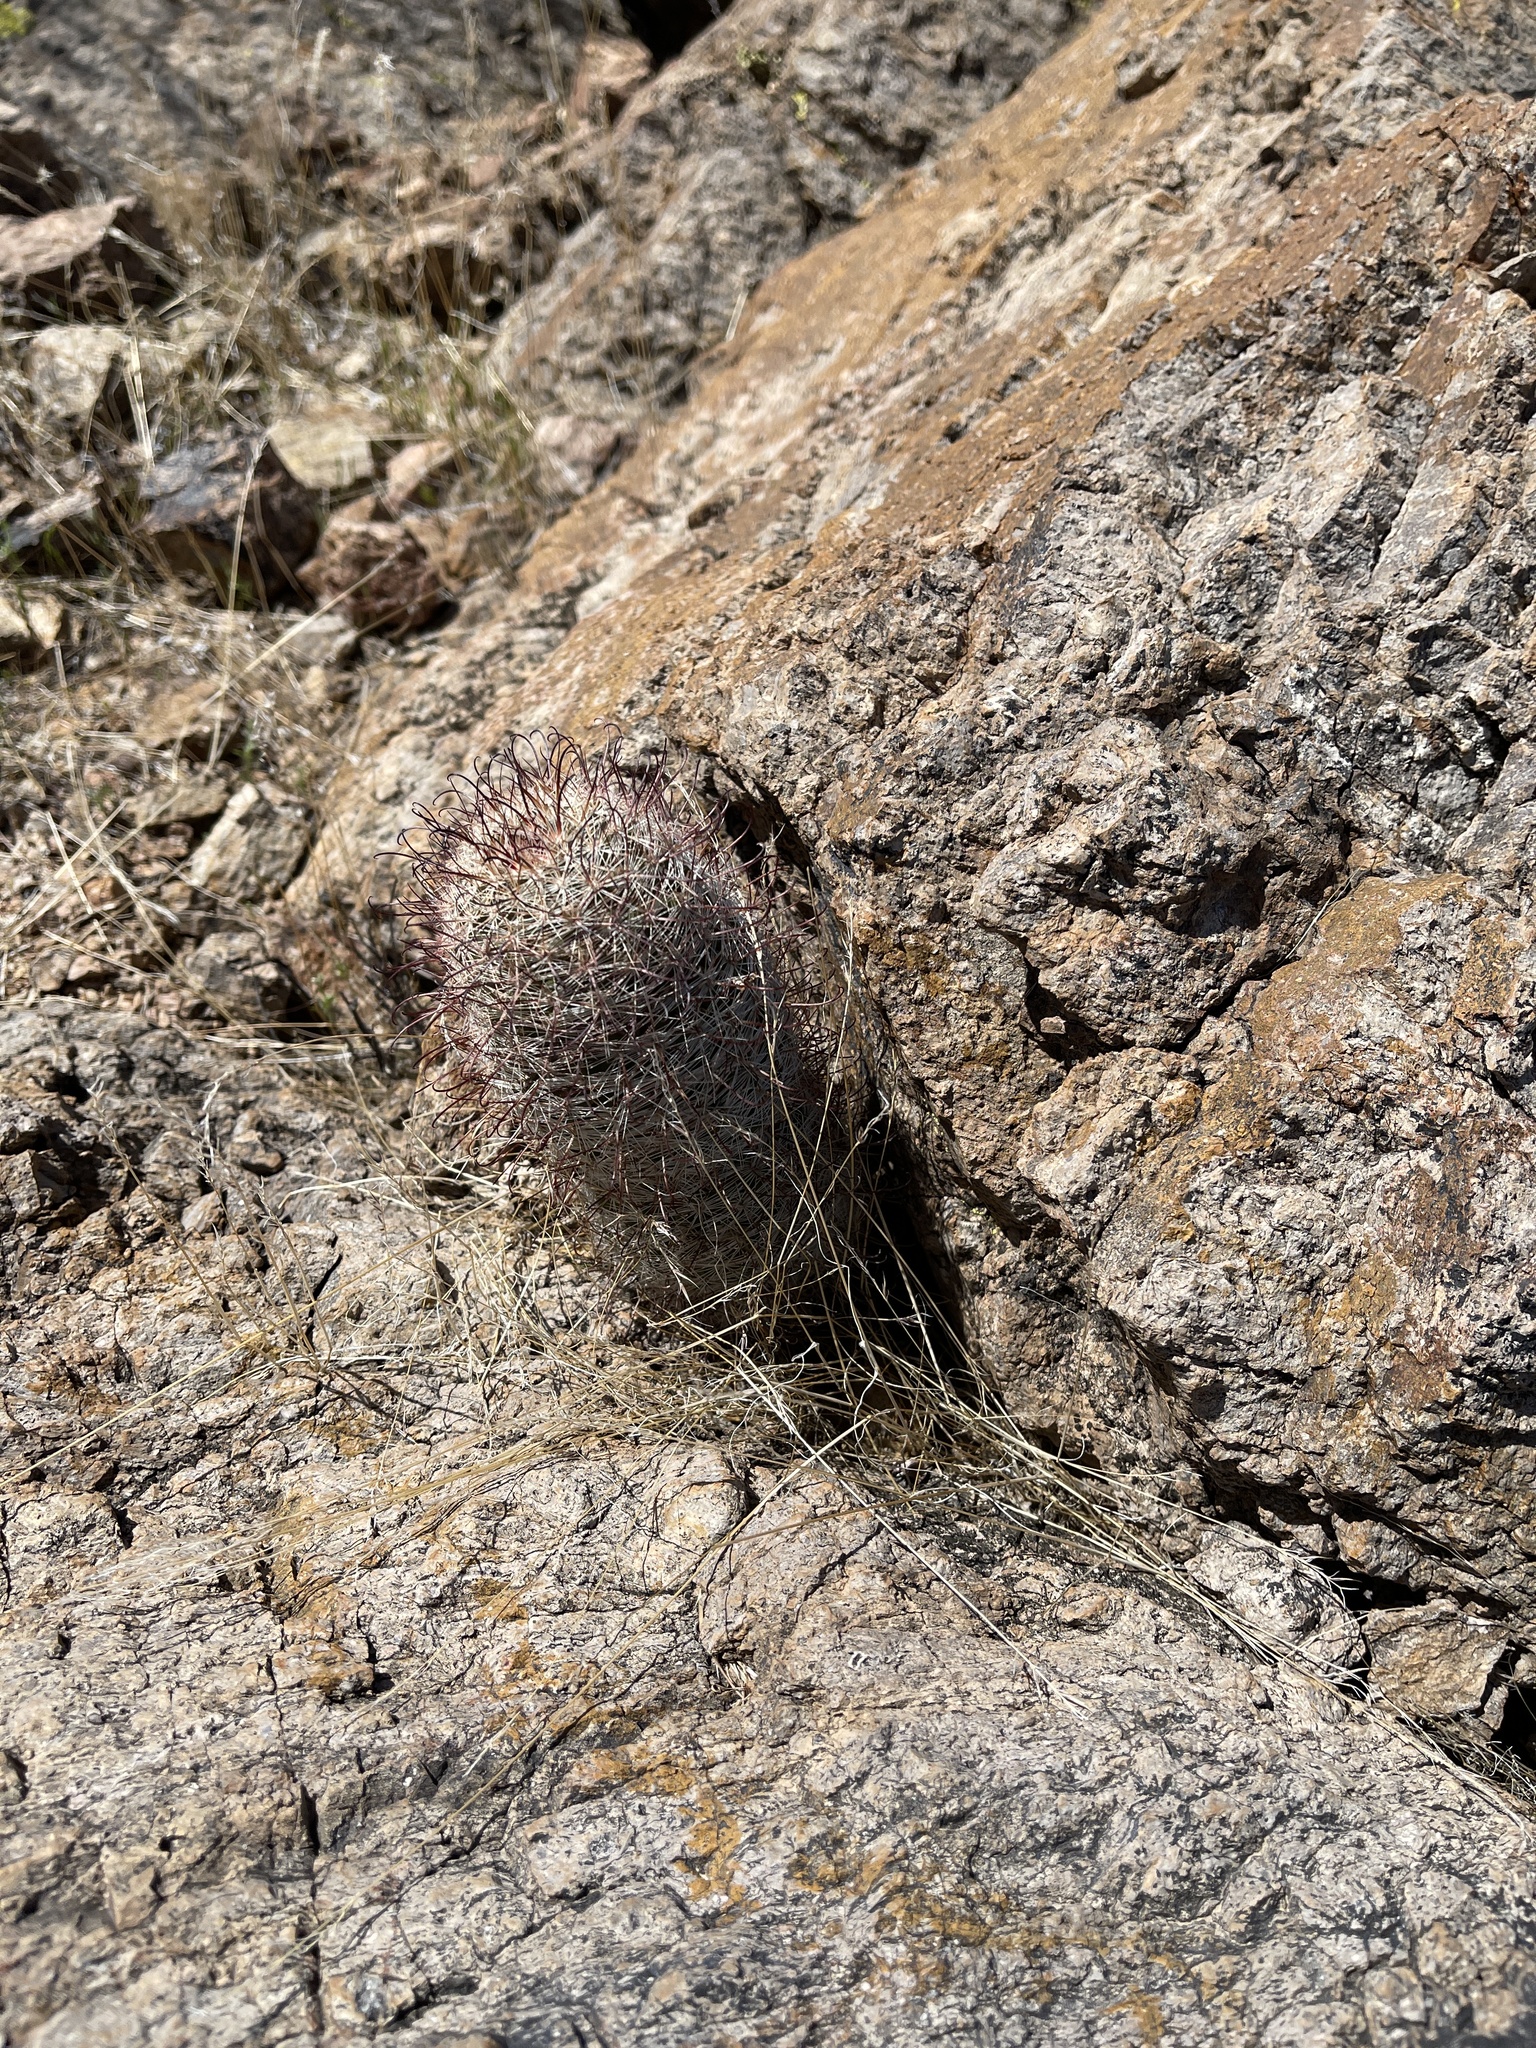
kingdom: Plantae
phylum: Tracheophyta
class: Magnoliopsida
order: Caryophyllales
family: Cactaceae
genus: Cochemiea
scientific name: Cochemiea grahamii
